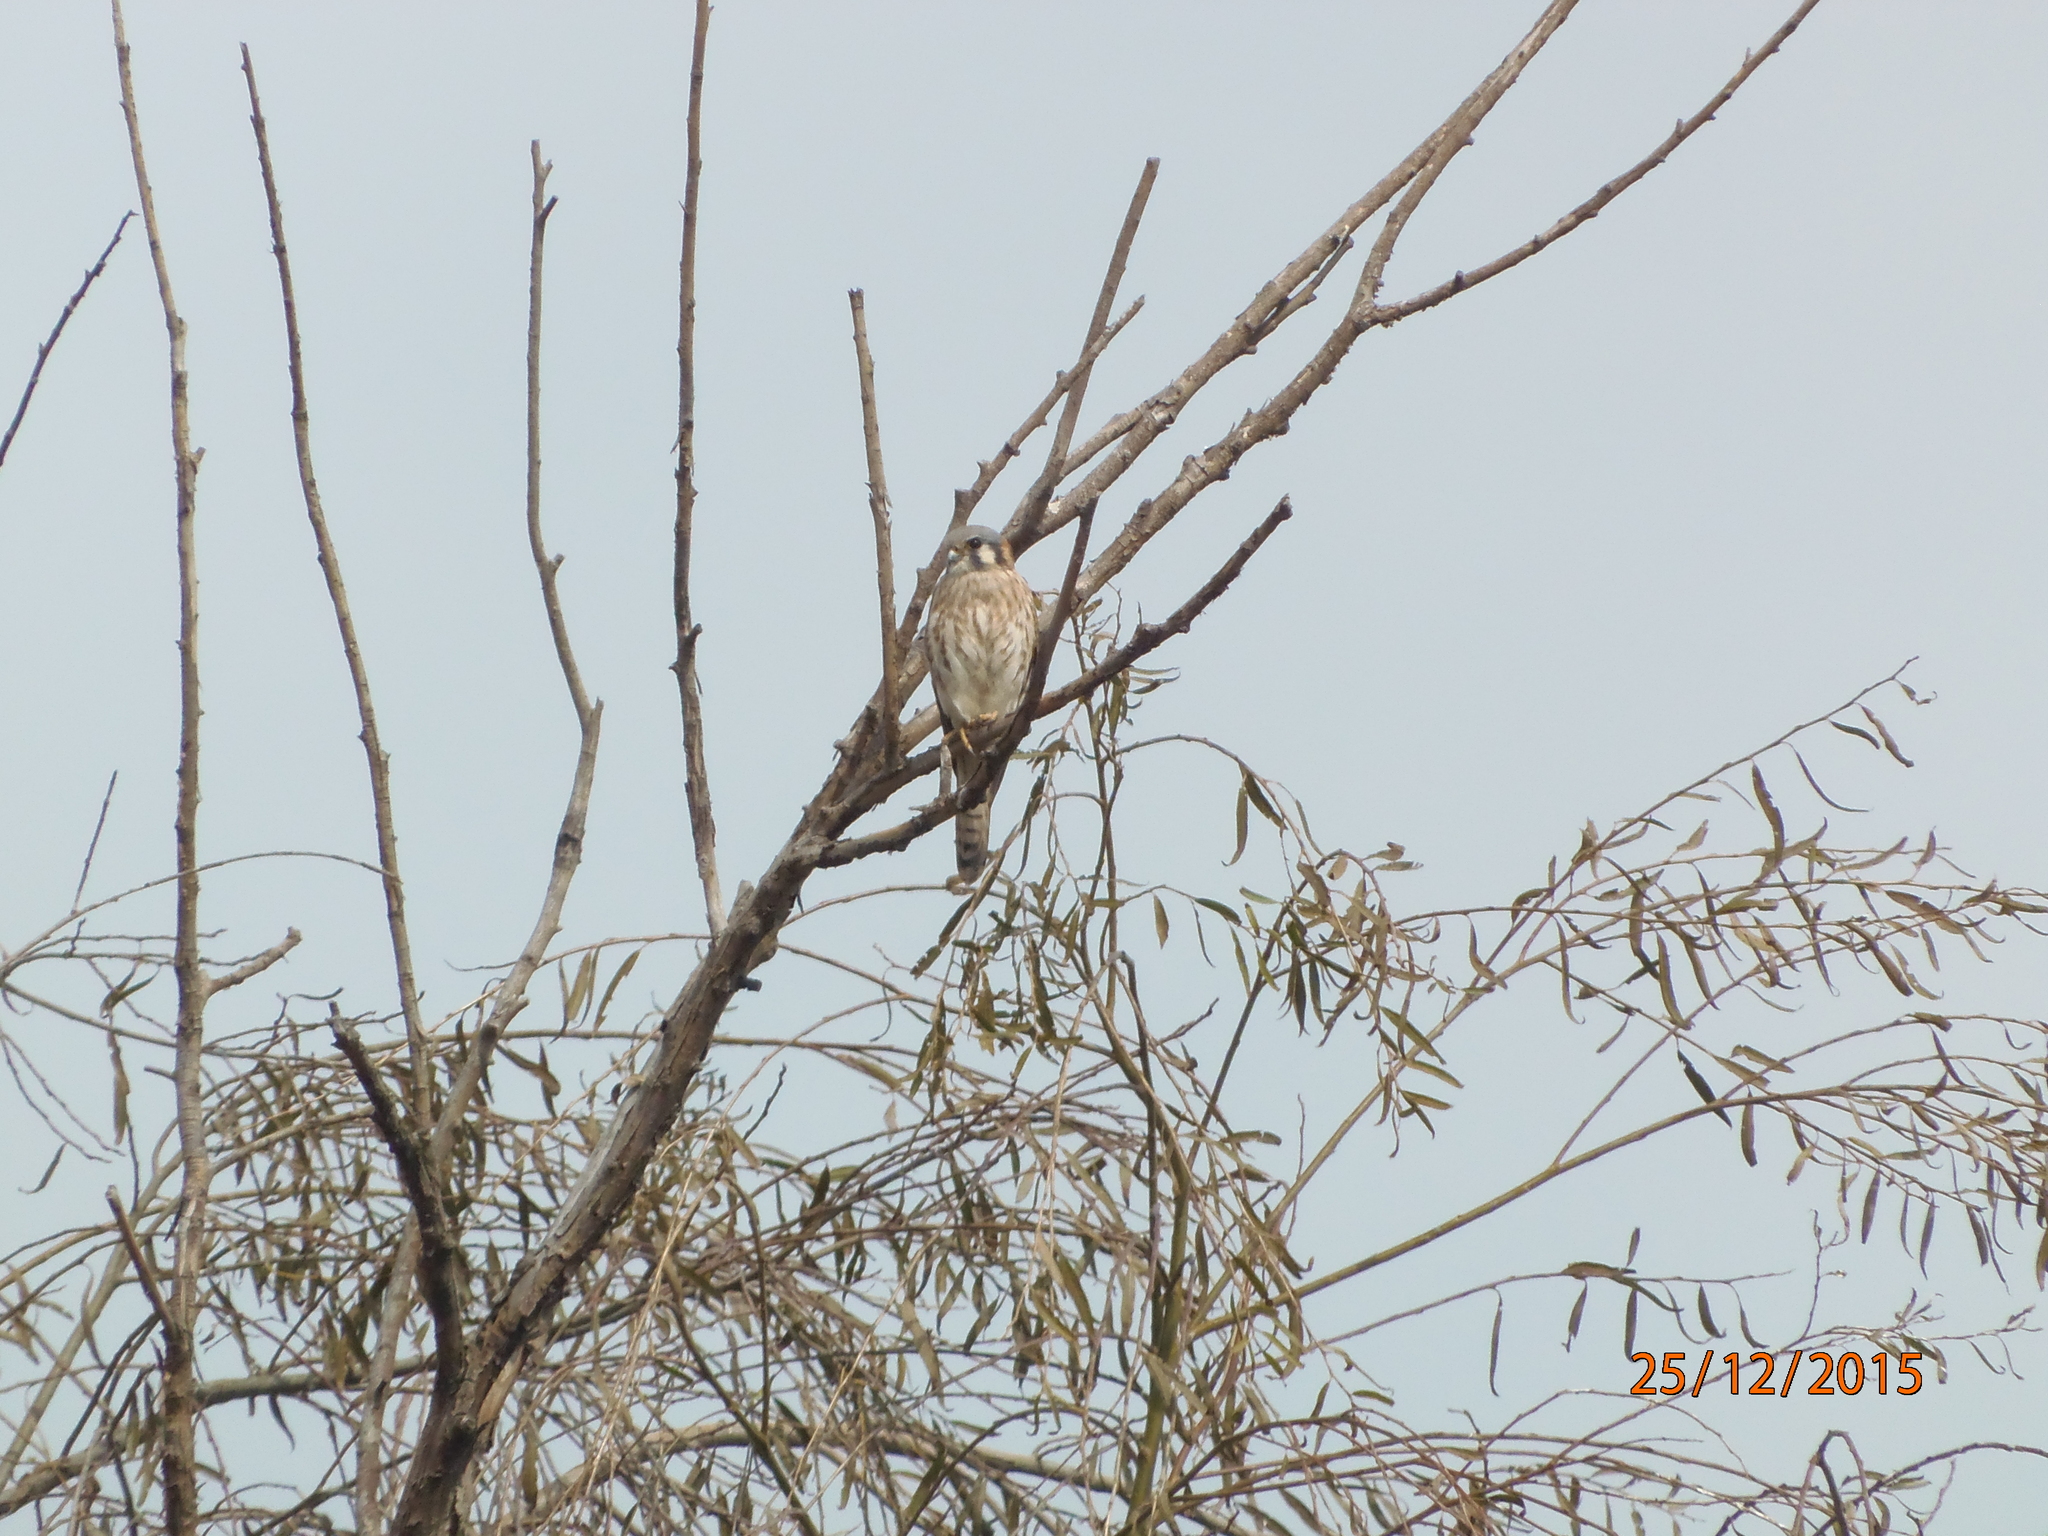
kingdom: Animalia
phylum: Chordata
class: Aves
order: Falconiformes
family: Falconidae
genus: Falco
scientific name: Falco sparverius
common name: American kestrel
